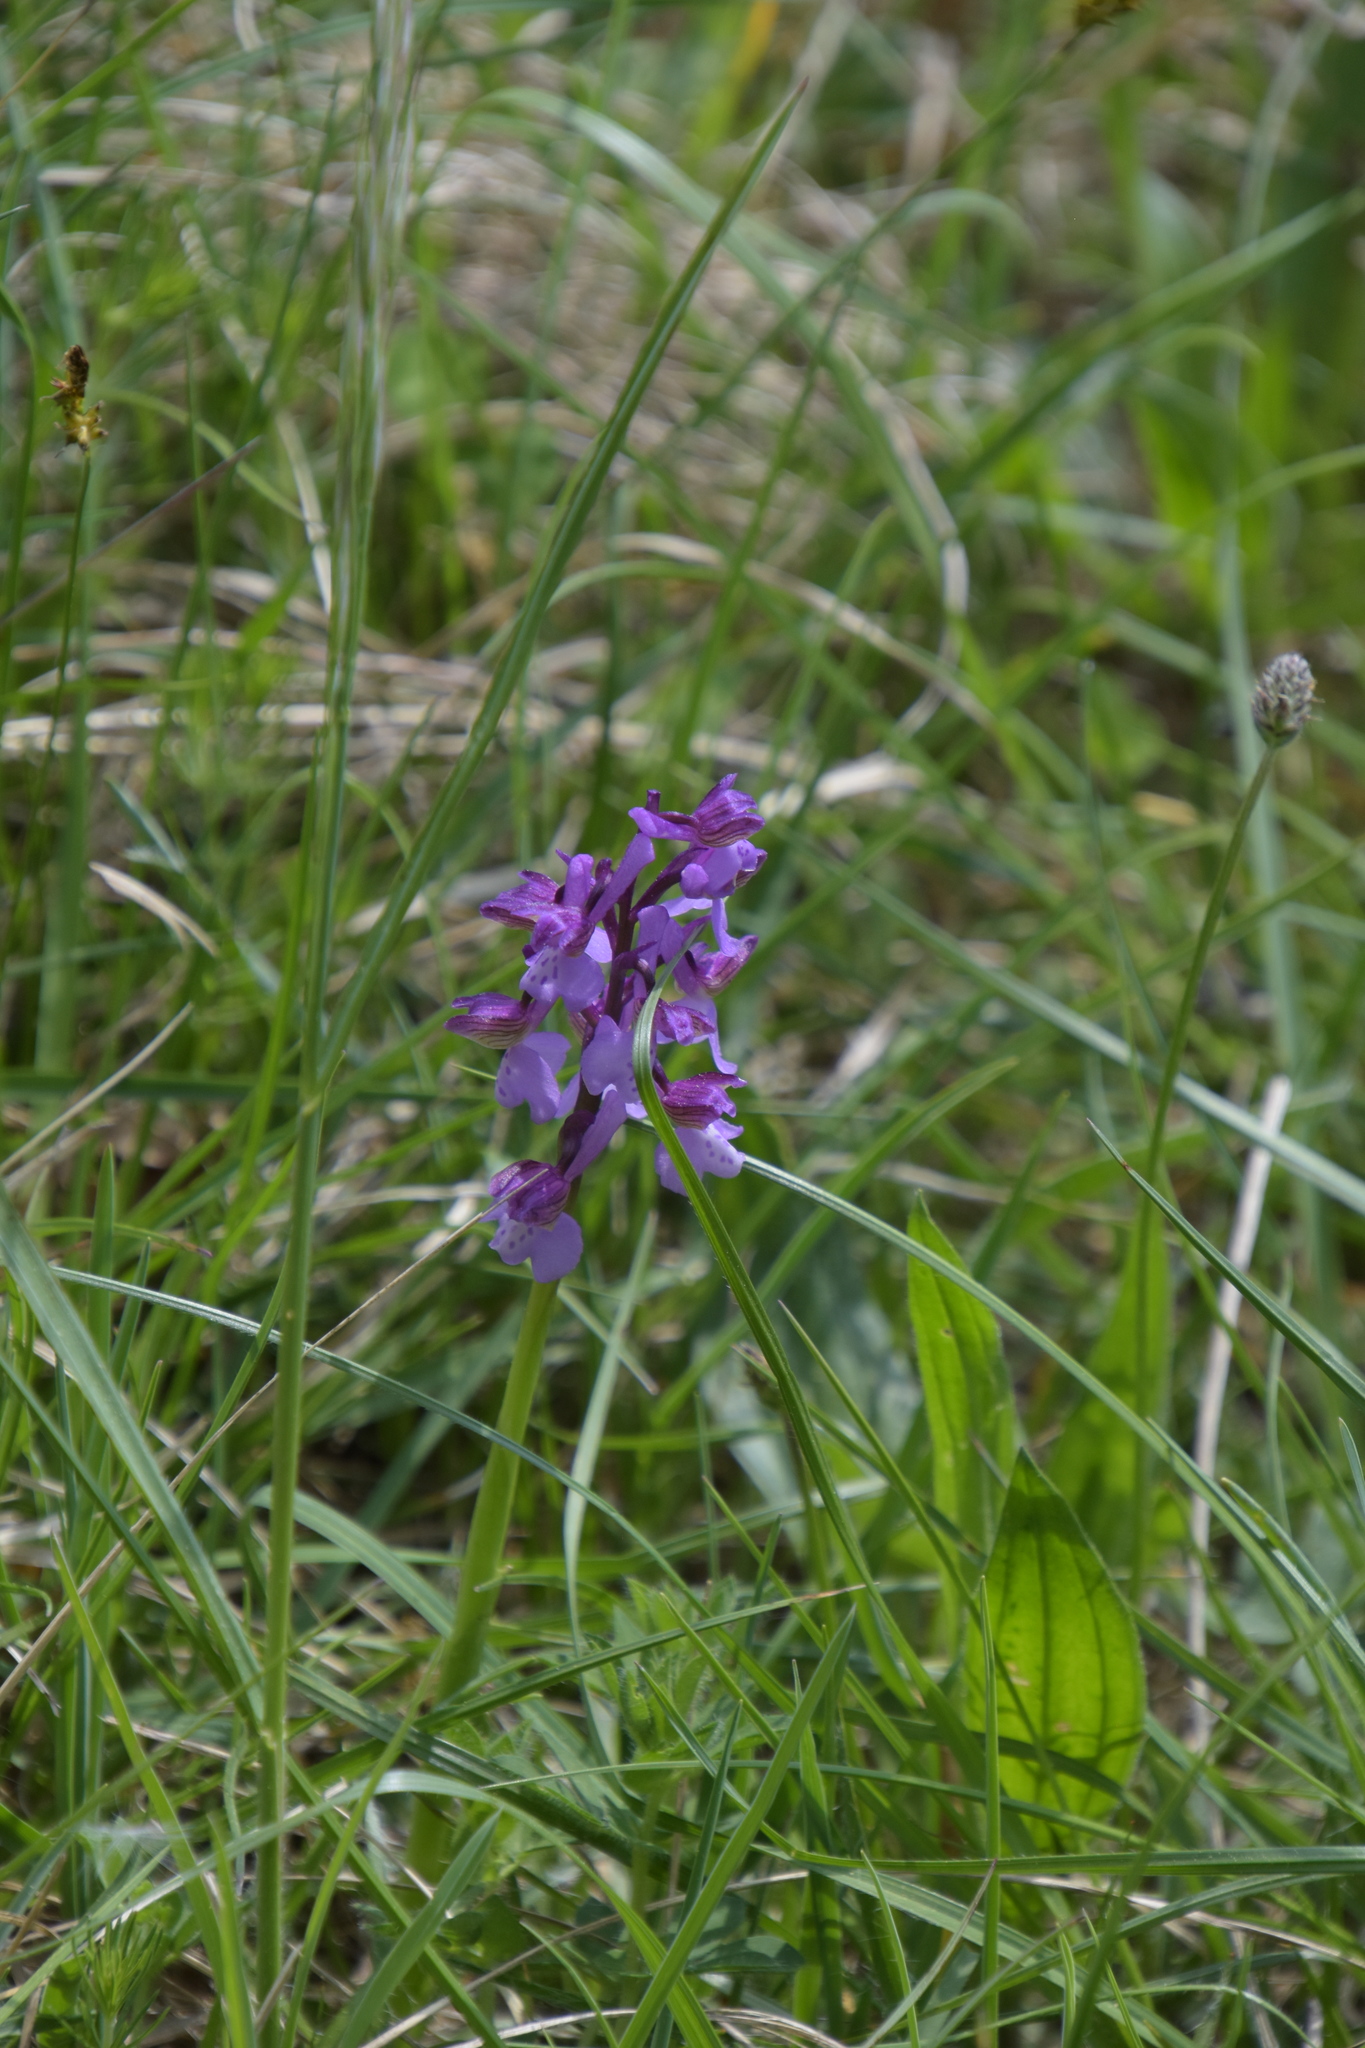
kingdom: Plantae
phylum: Tracheophyta
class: Liliopsida
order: Asparagales
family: Orchidaceae
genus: Anacamptis
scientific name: Anacamptis morio
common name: Green-winged orchid
